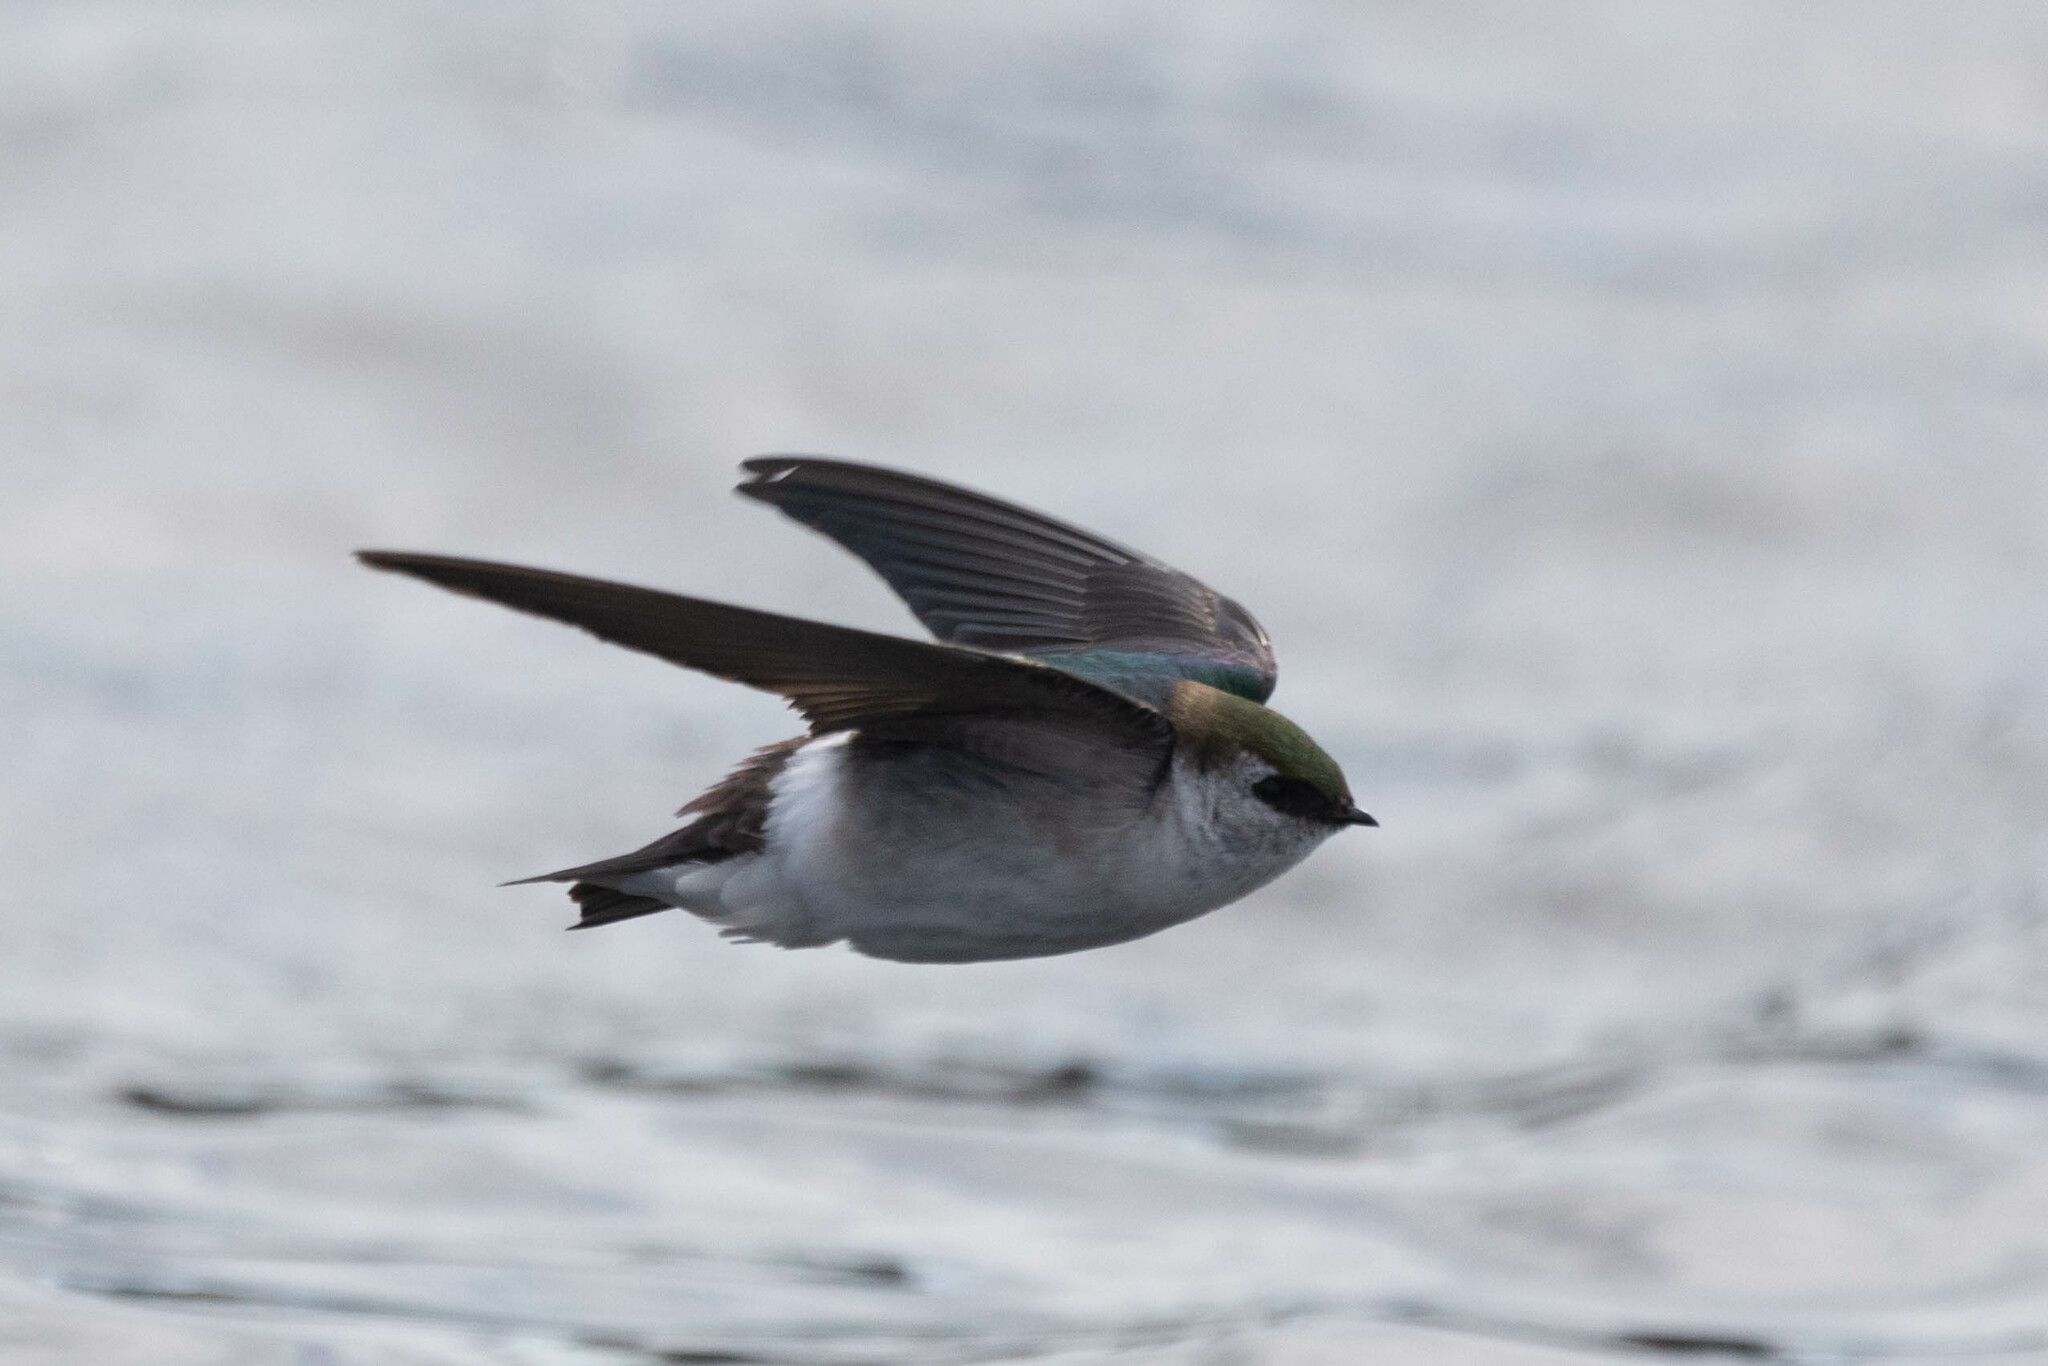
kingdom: Animalia
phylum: Chordata
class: Aves
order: Passeriformes
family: Hirundinidae
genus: Tachycineta
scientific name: Tachycineta thalassina
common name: Violet-green swallow
